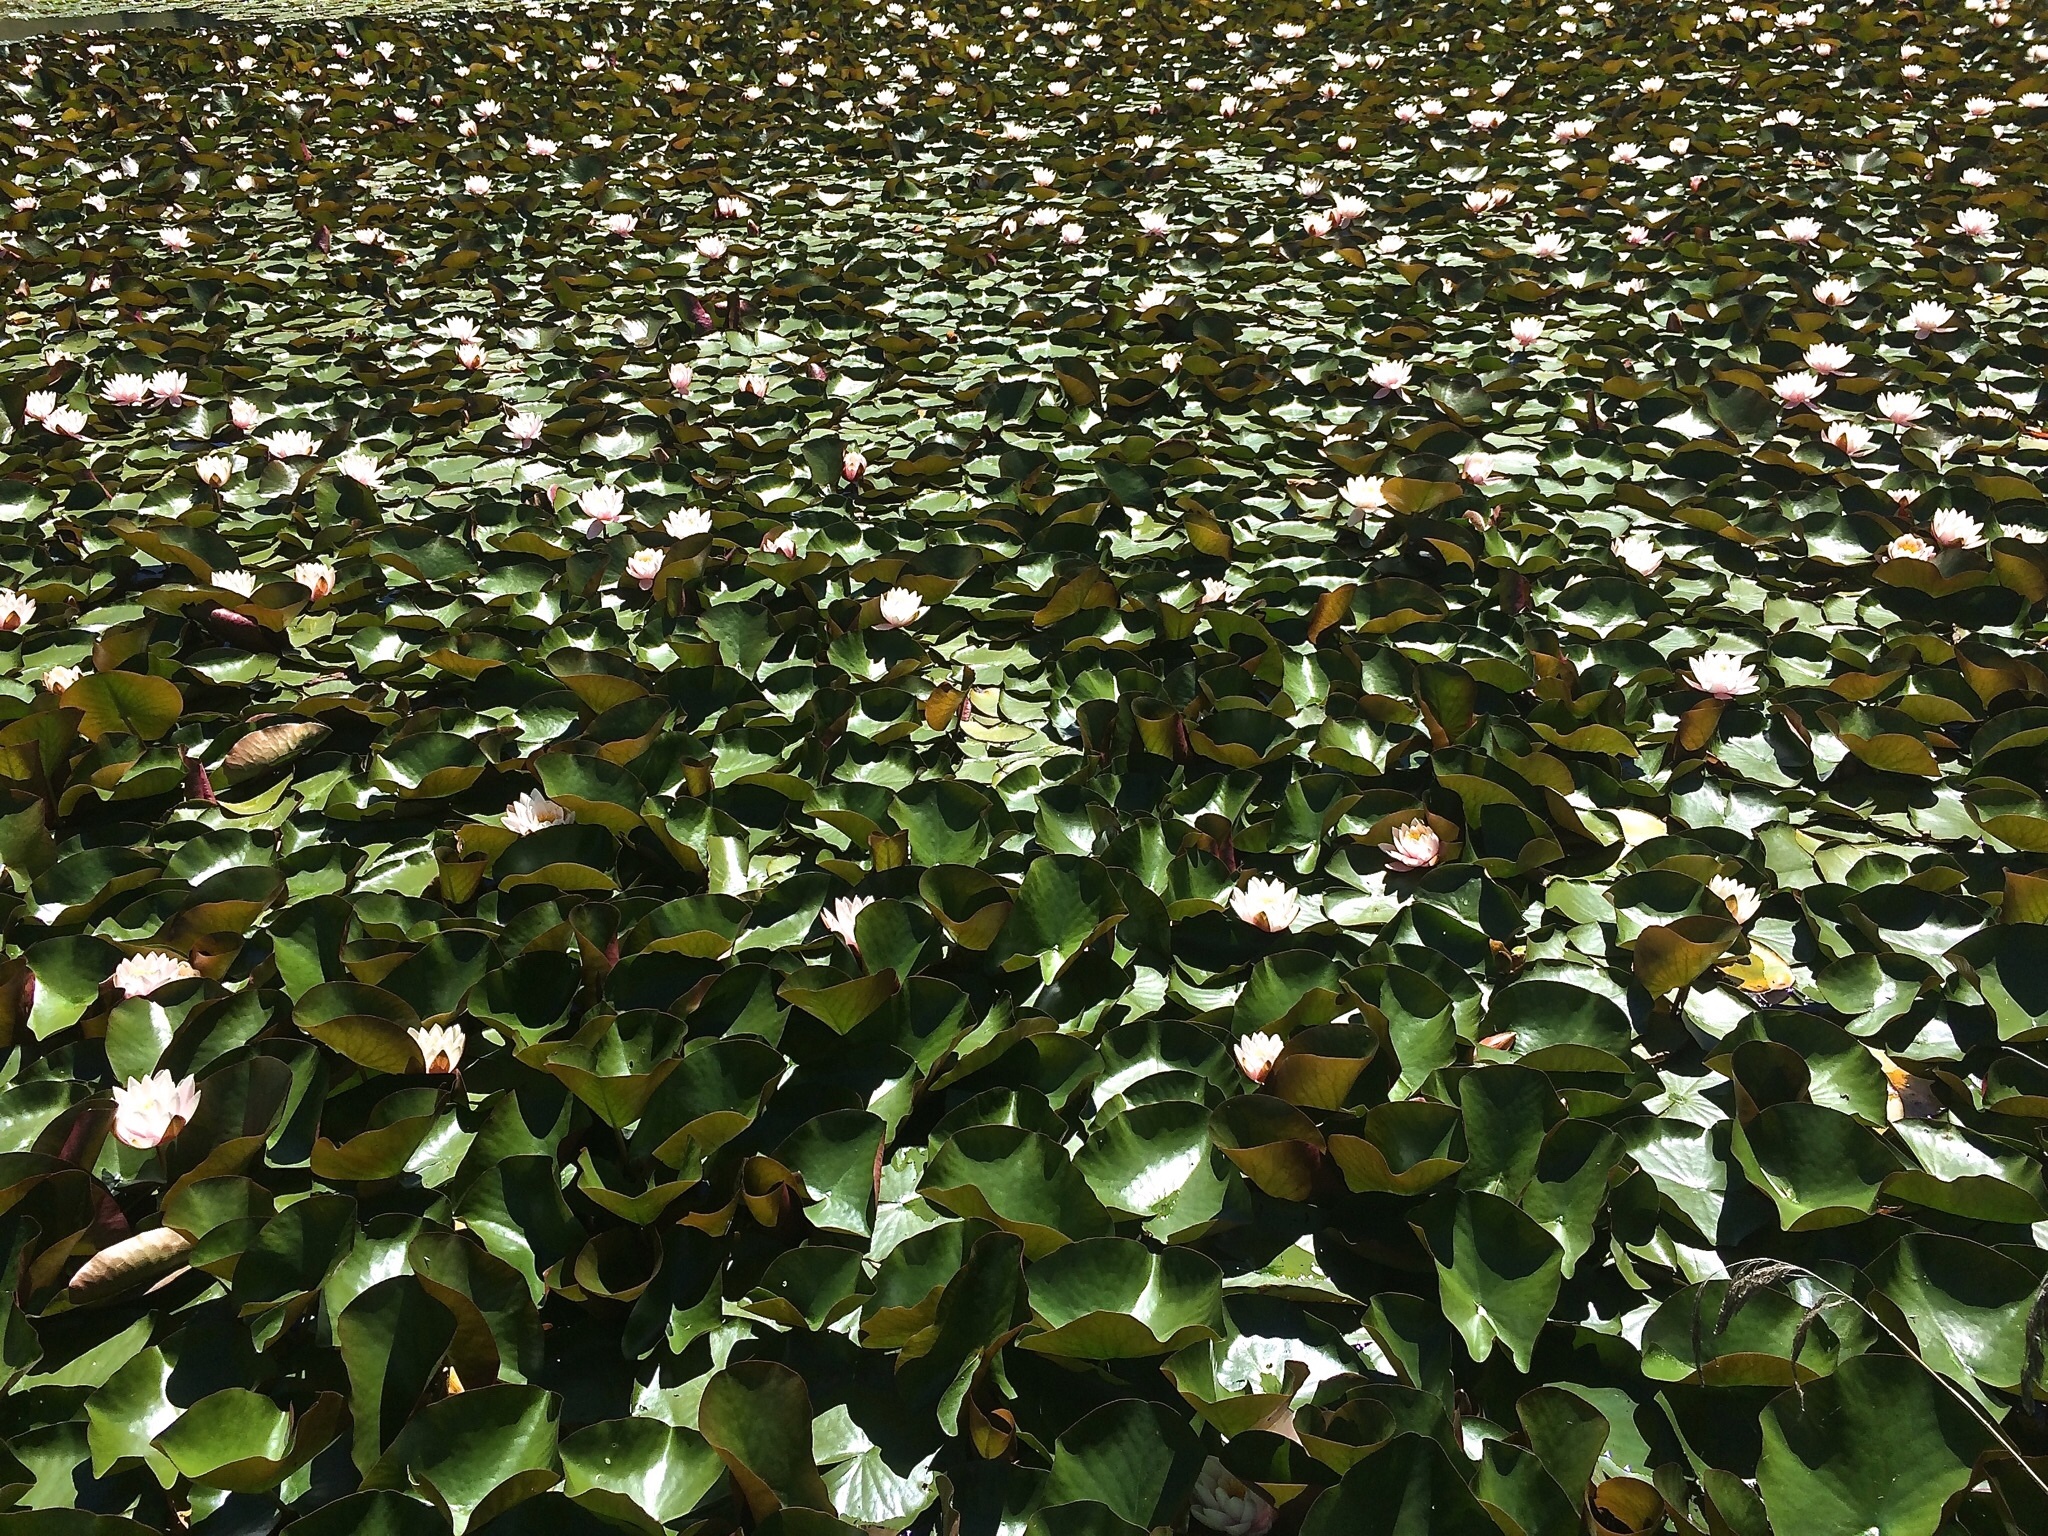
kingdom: Plantae
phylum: Tracheophyta
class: Magnoliopsida
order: Nymphaeales
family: Nymphaeaceae
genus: Nymphaea
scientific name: Nymphaea alba
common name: White water-lily
